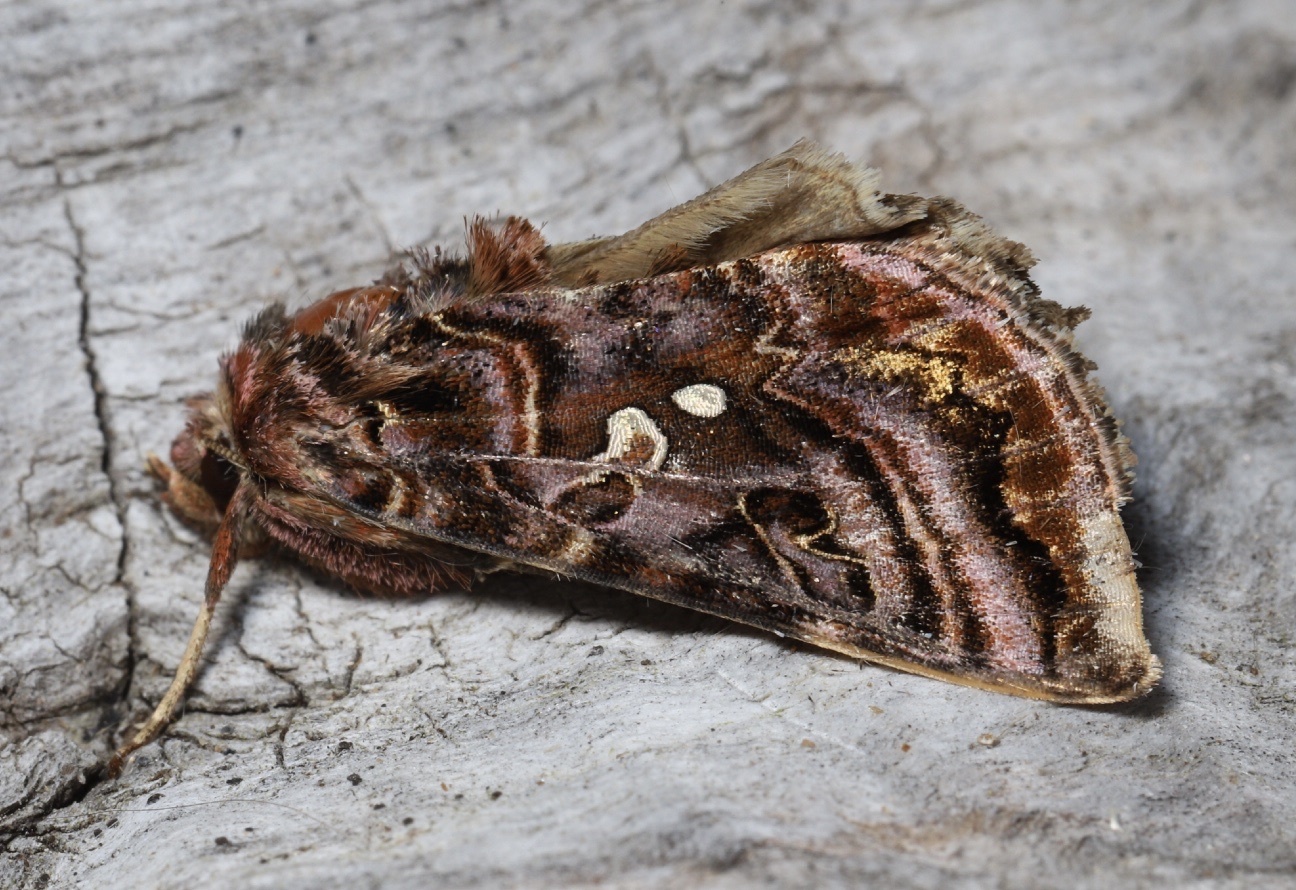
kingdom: Animalia
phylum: Arthropoda
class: Insecta
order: Lepidoptera
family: Noctuidae
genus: Autographa
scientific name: Autographa mappa
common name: Wavy chestnut y moth
